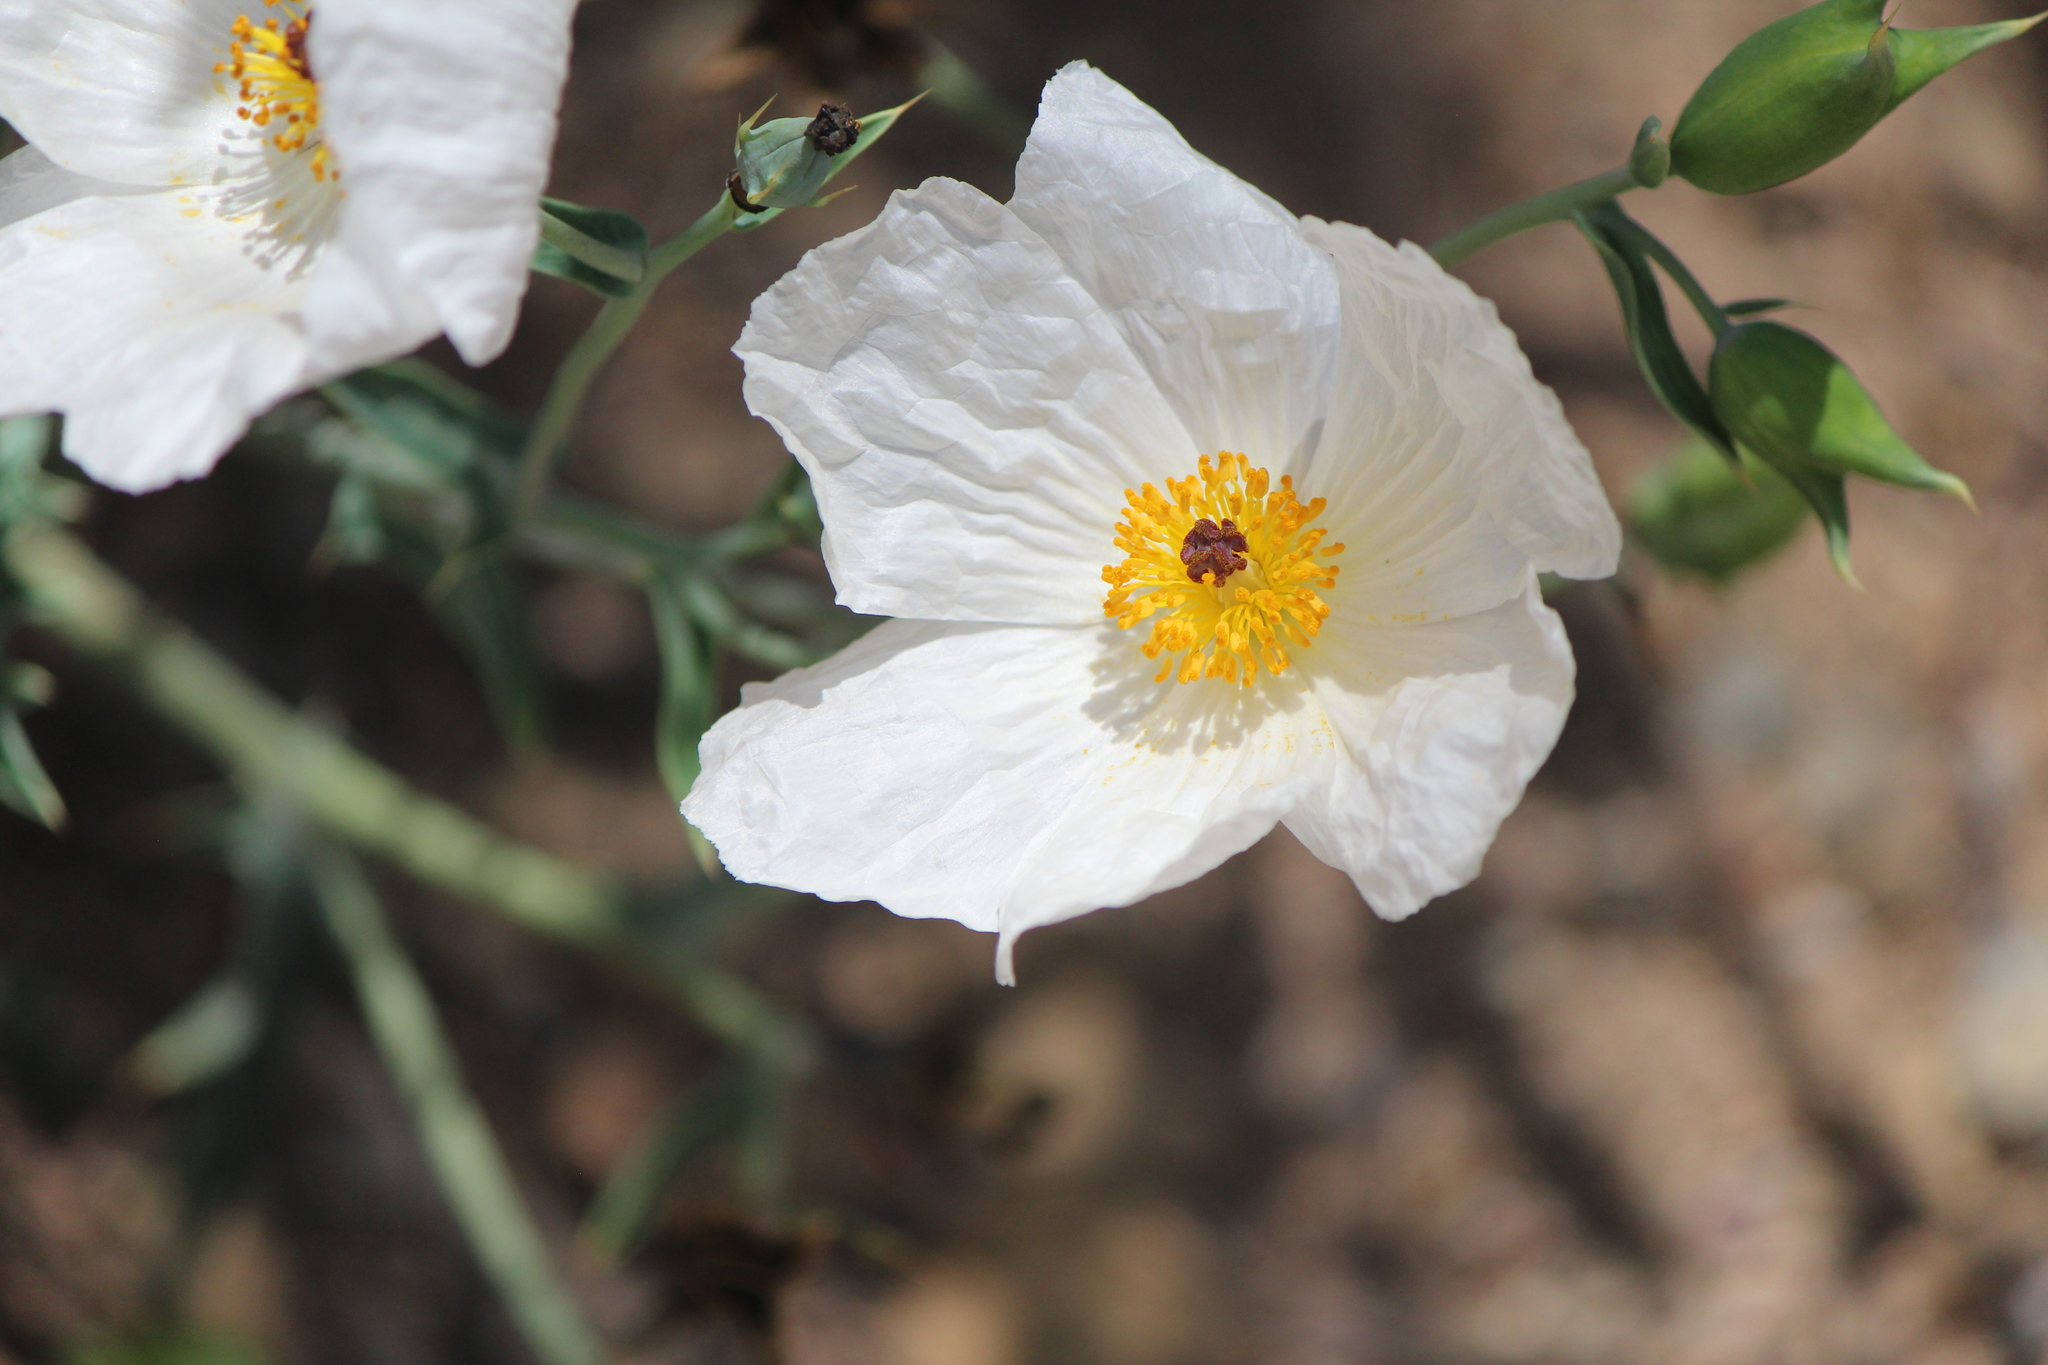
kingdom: Plantae
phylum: Tracheophyta
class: Magnoliopsida
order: Ranunculales
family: Papaveraceae
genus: Argemone
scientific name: Argemone grandiflora
